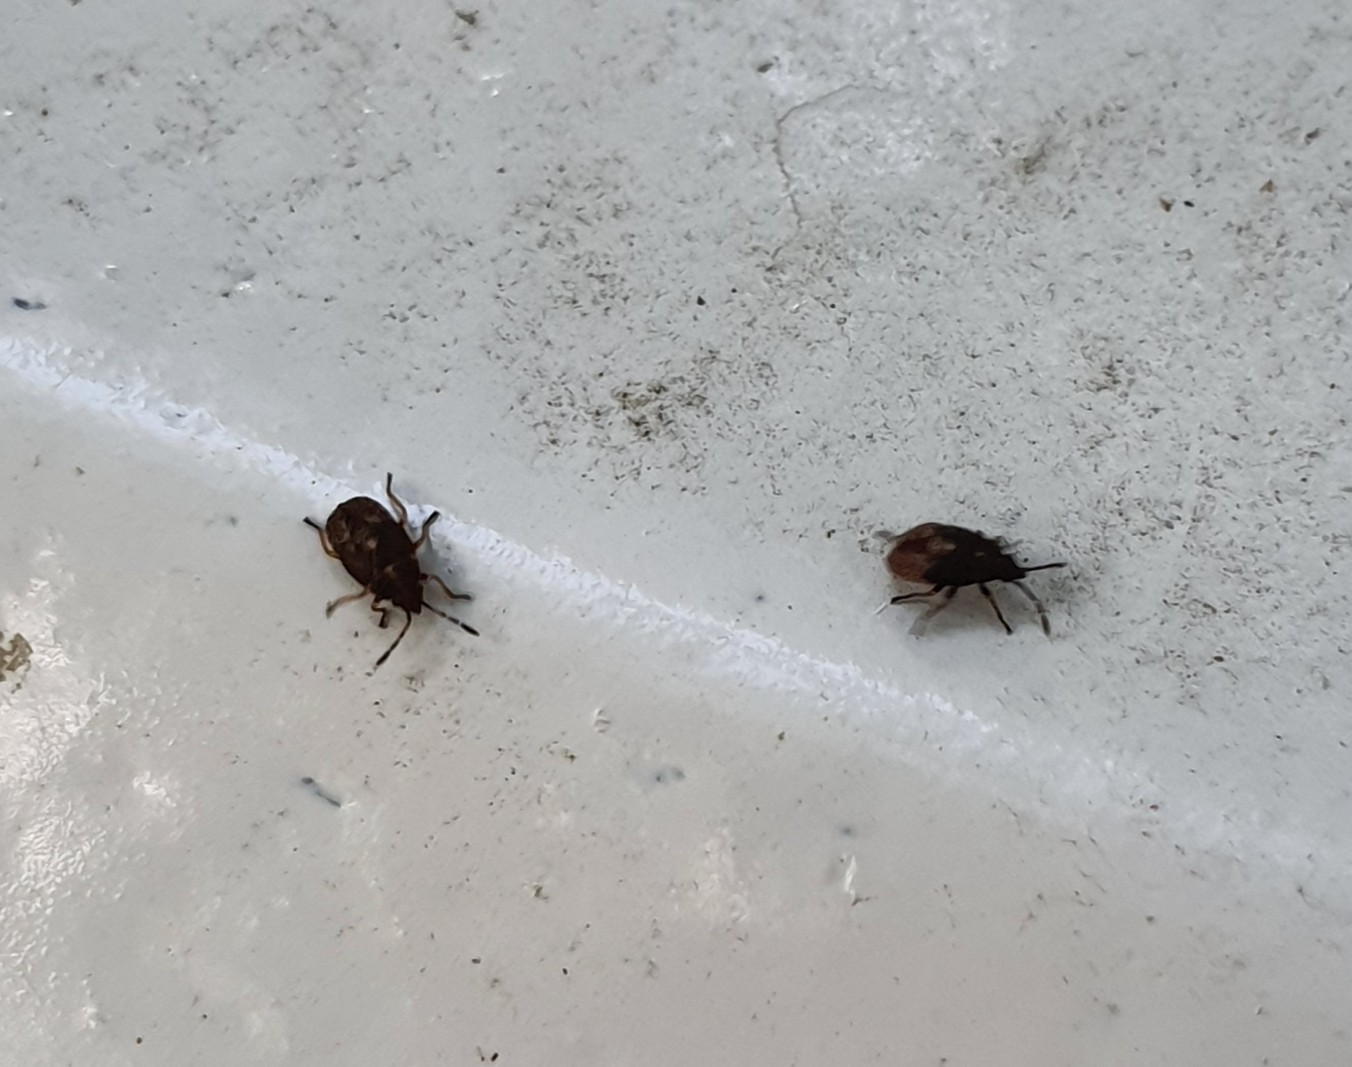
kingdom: Animalia
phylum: Arthropoda
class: Insecta
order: Hemiptera
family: Lygaeidae
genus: Kleidocerys
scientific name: Kleidocerys resedae
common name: Birch catkin bug
